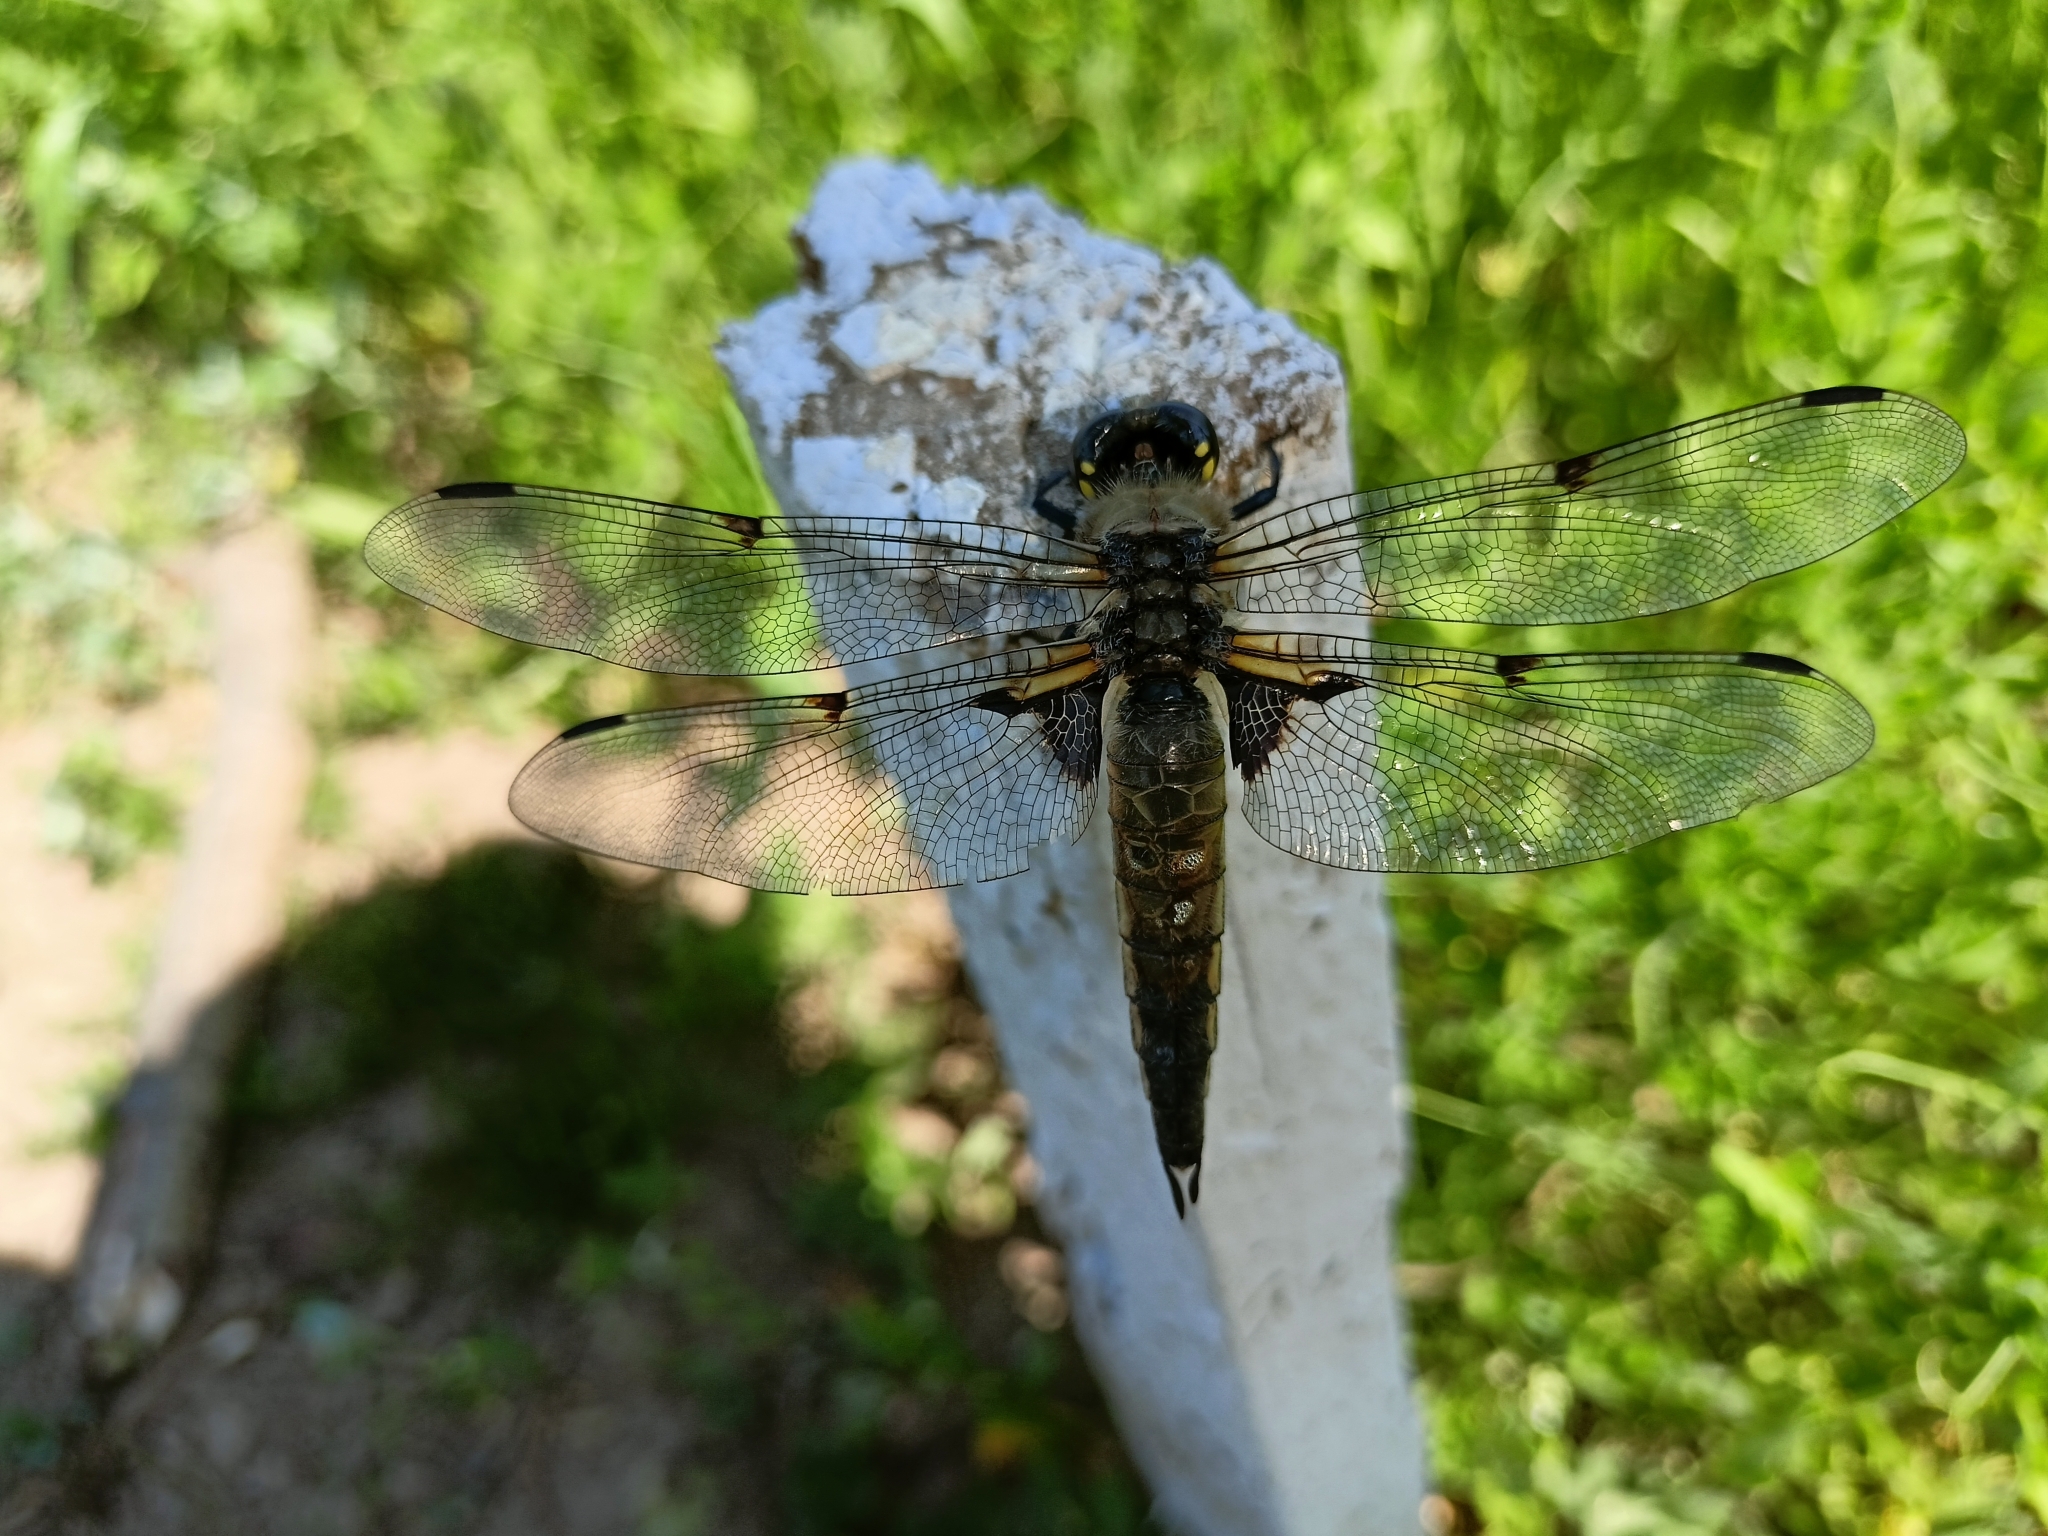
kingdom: Animalia
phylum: Arthropoda
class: Insecta
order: Odonata
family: Libellulidae
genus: Libellula
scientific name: Libellula quadrimaculata
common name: Four-spotted chaser
